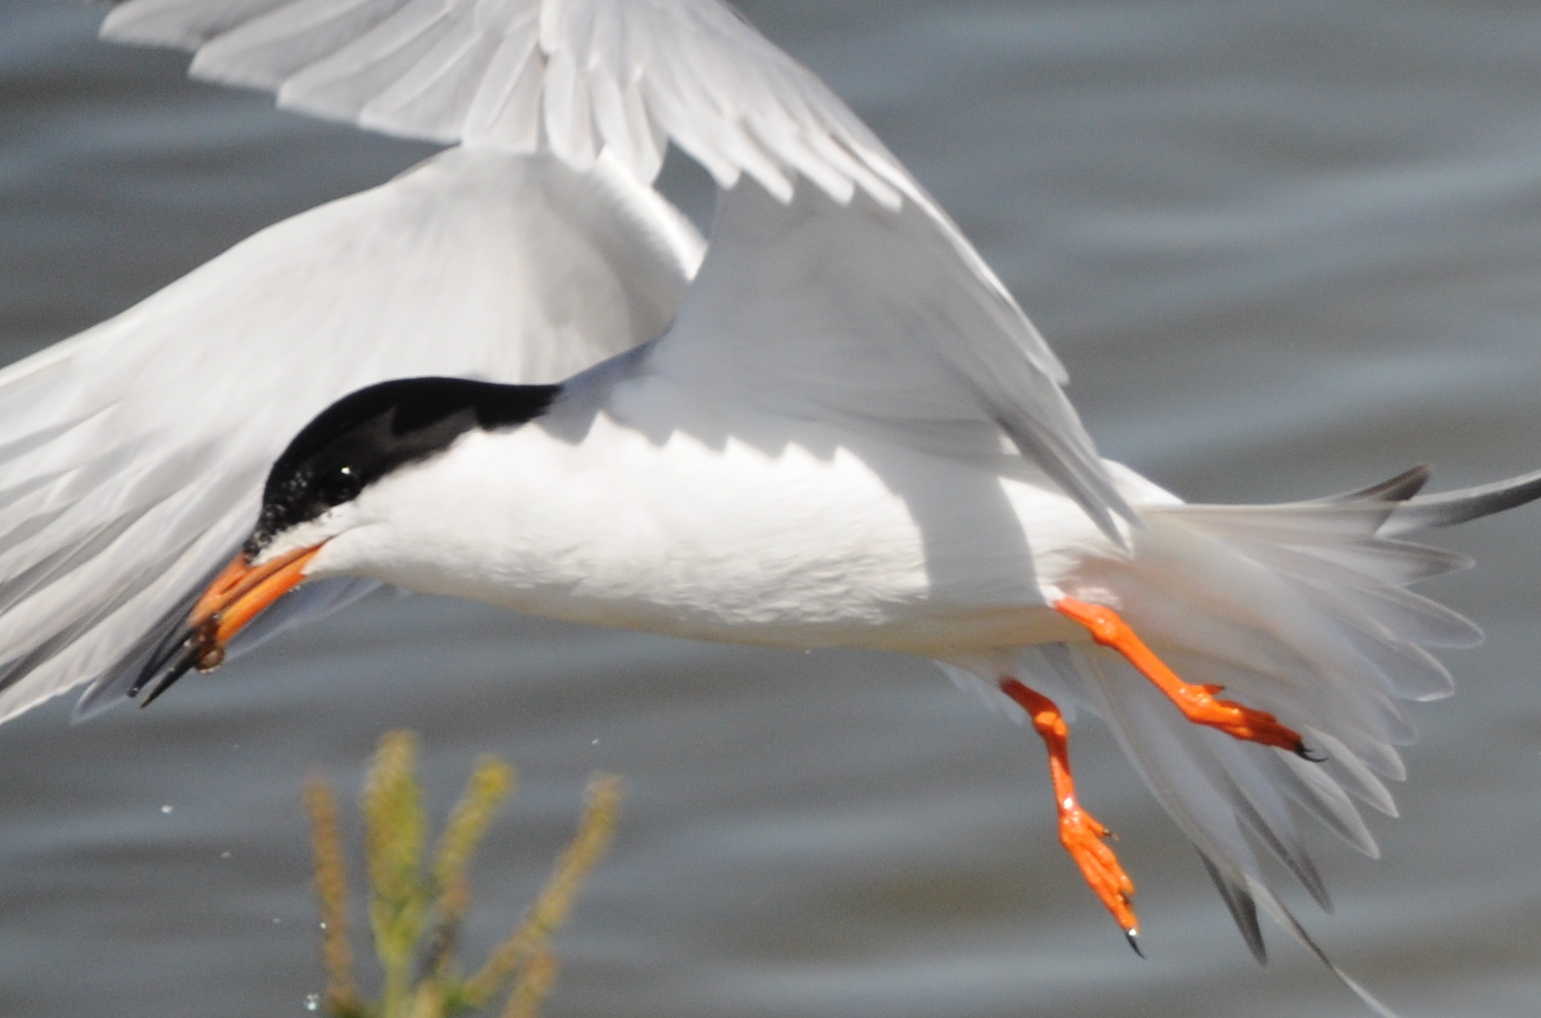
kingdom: Animalia
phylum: Chordata
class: Aves
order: Charadriiformes
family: Laridae
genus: Sterna
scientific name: Sterna forsteri
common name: Forster's tern
